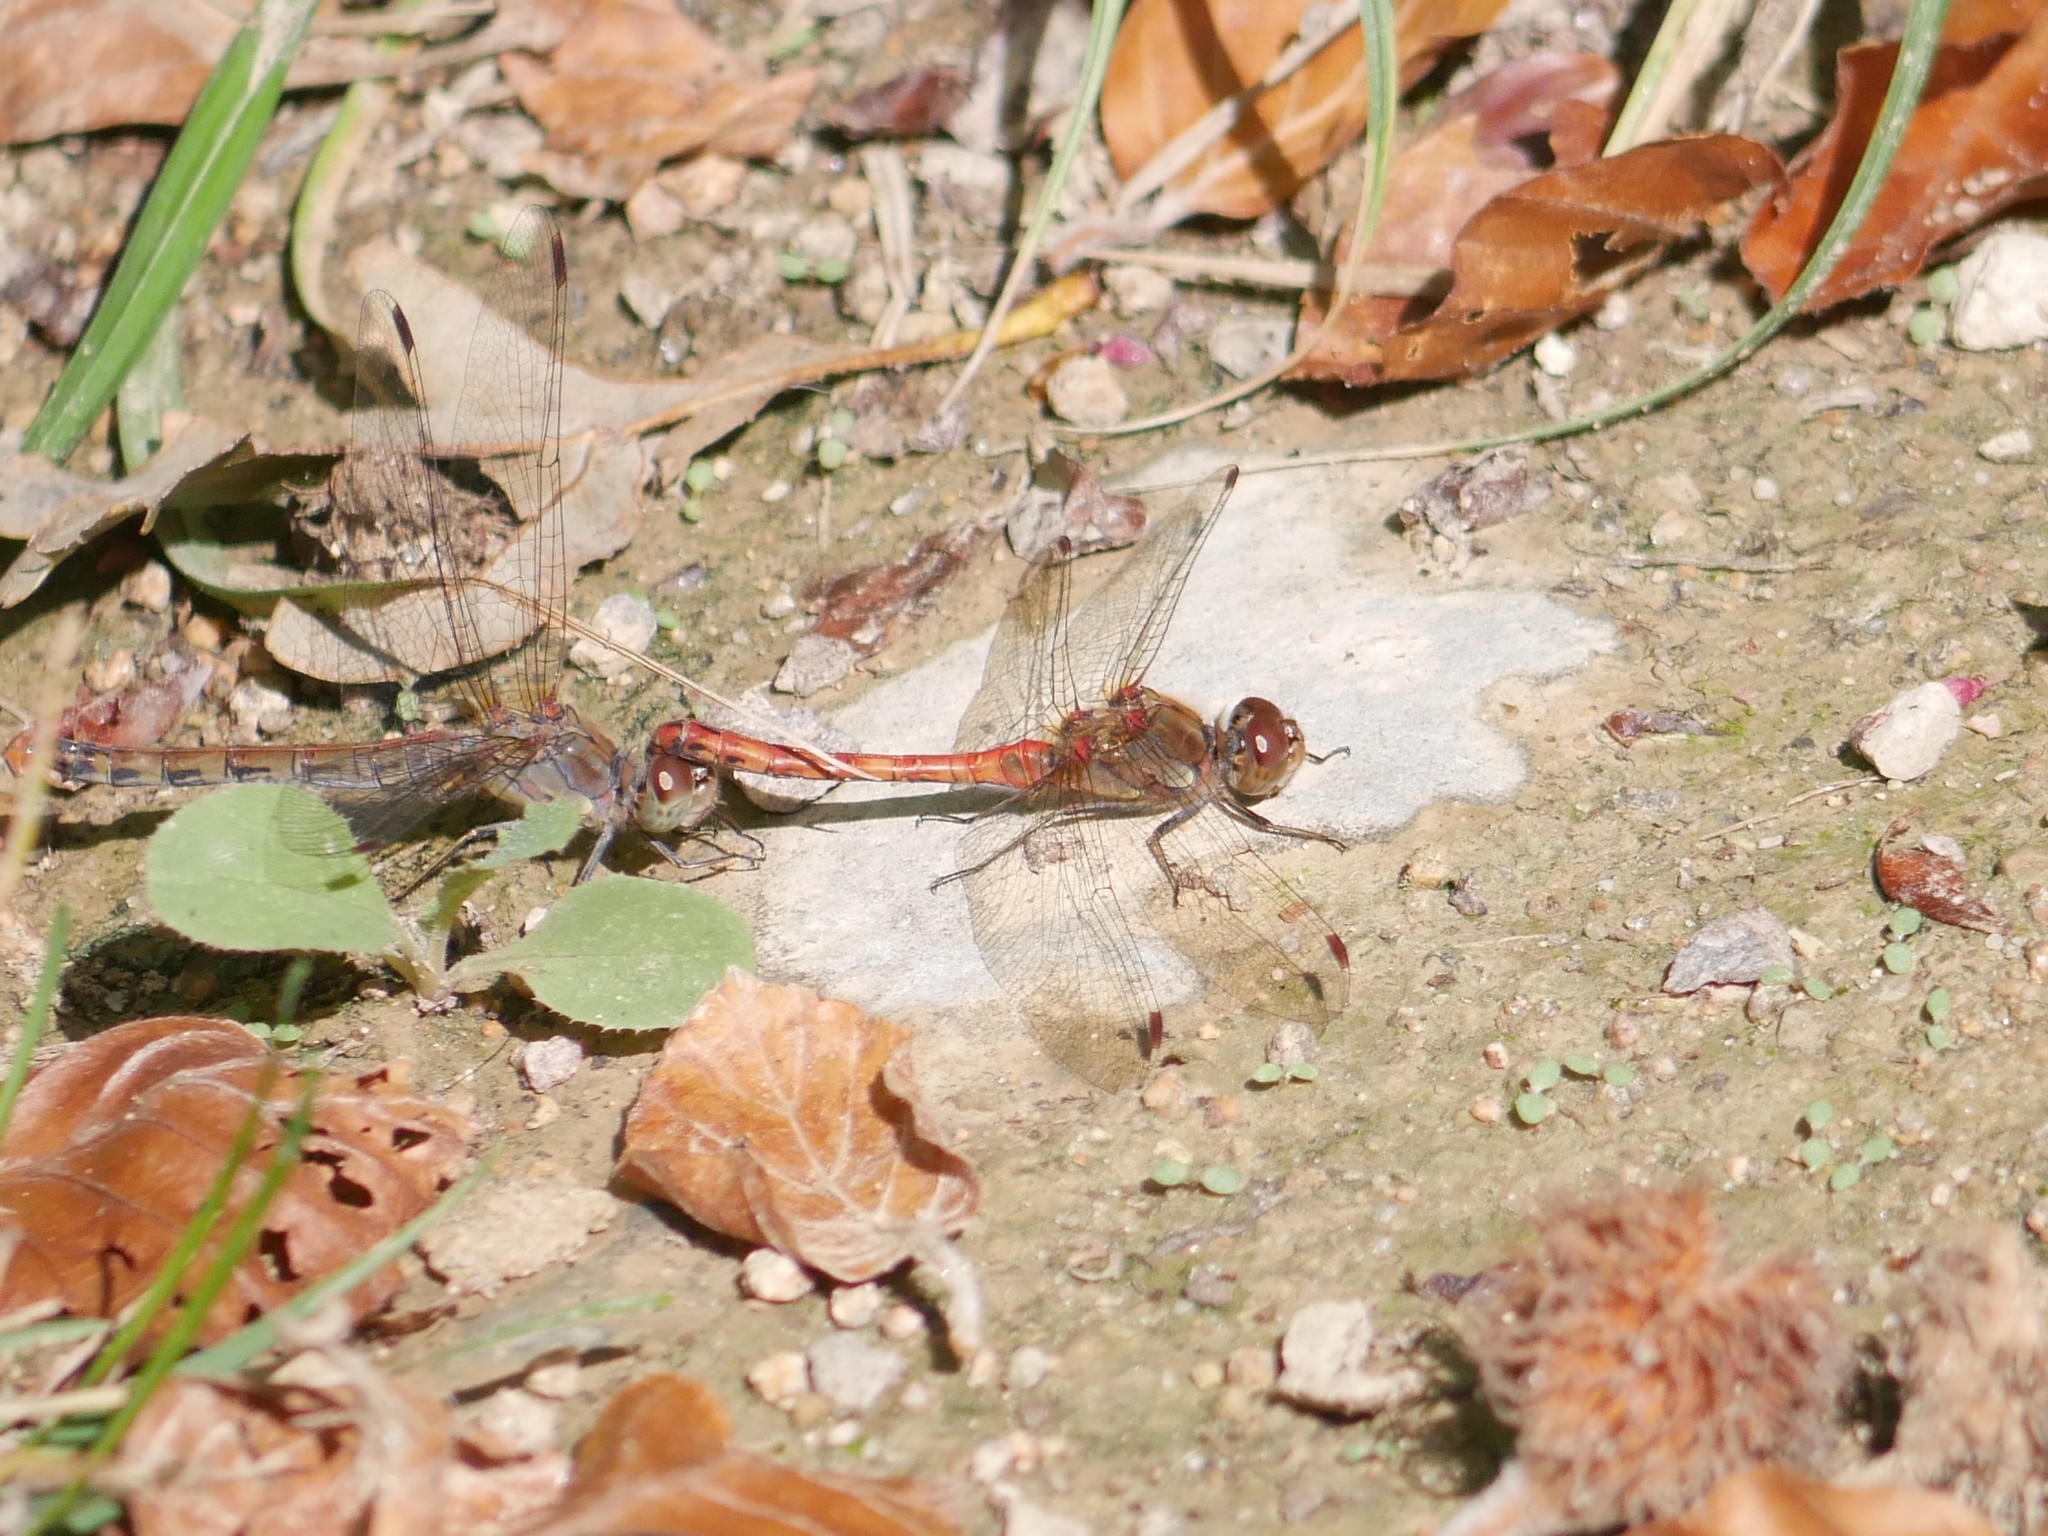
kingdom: Animalia
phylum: Arthropoda
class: Insecta
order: Odonata
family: Libellulidae
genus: Sympetrum
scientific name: Sympetrum striolatum
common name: Common darter
